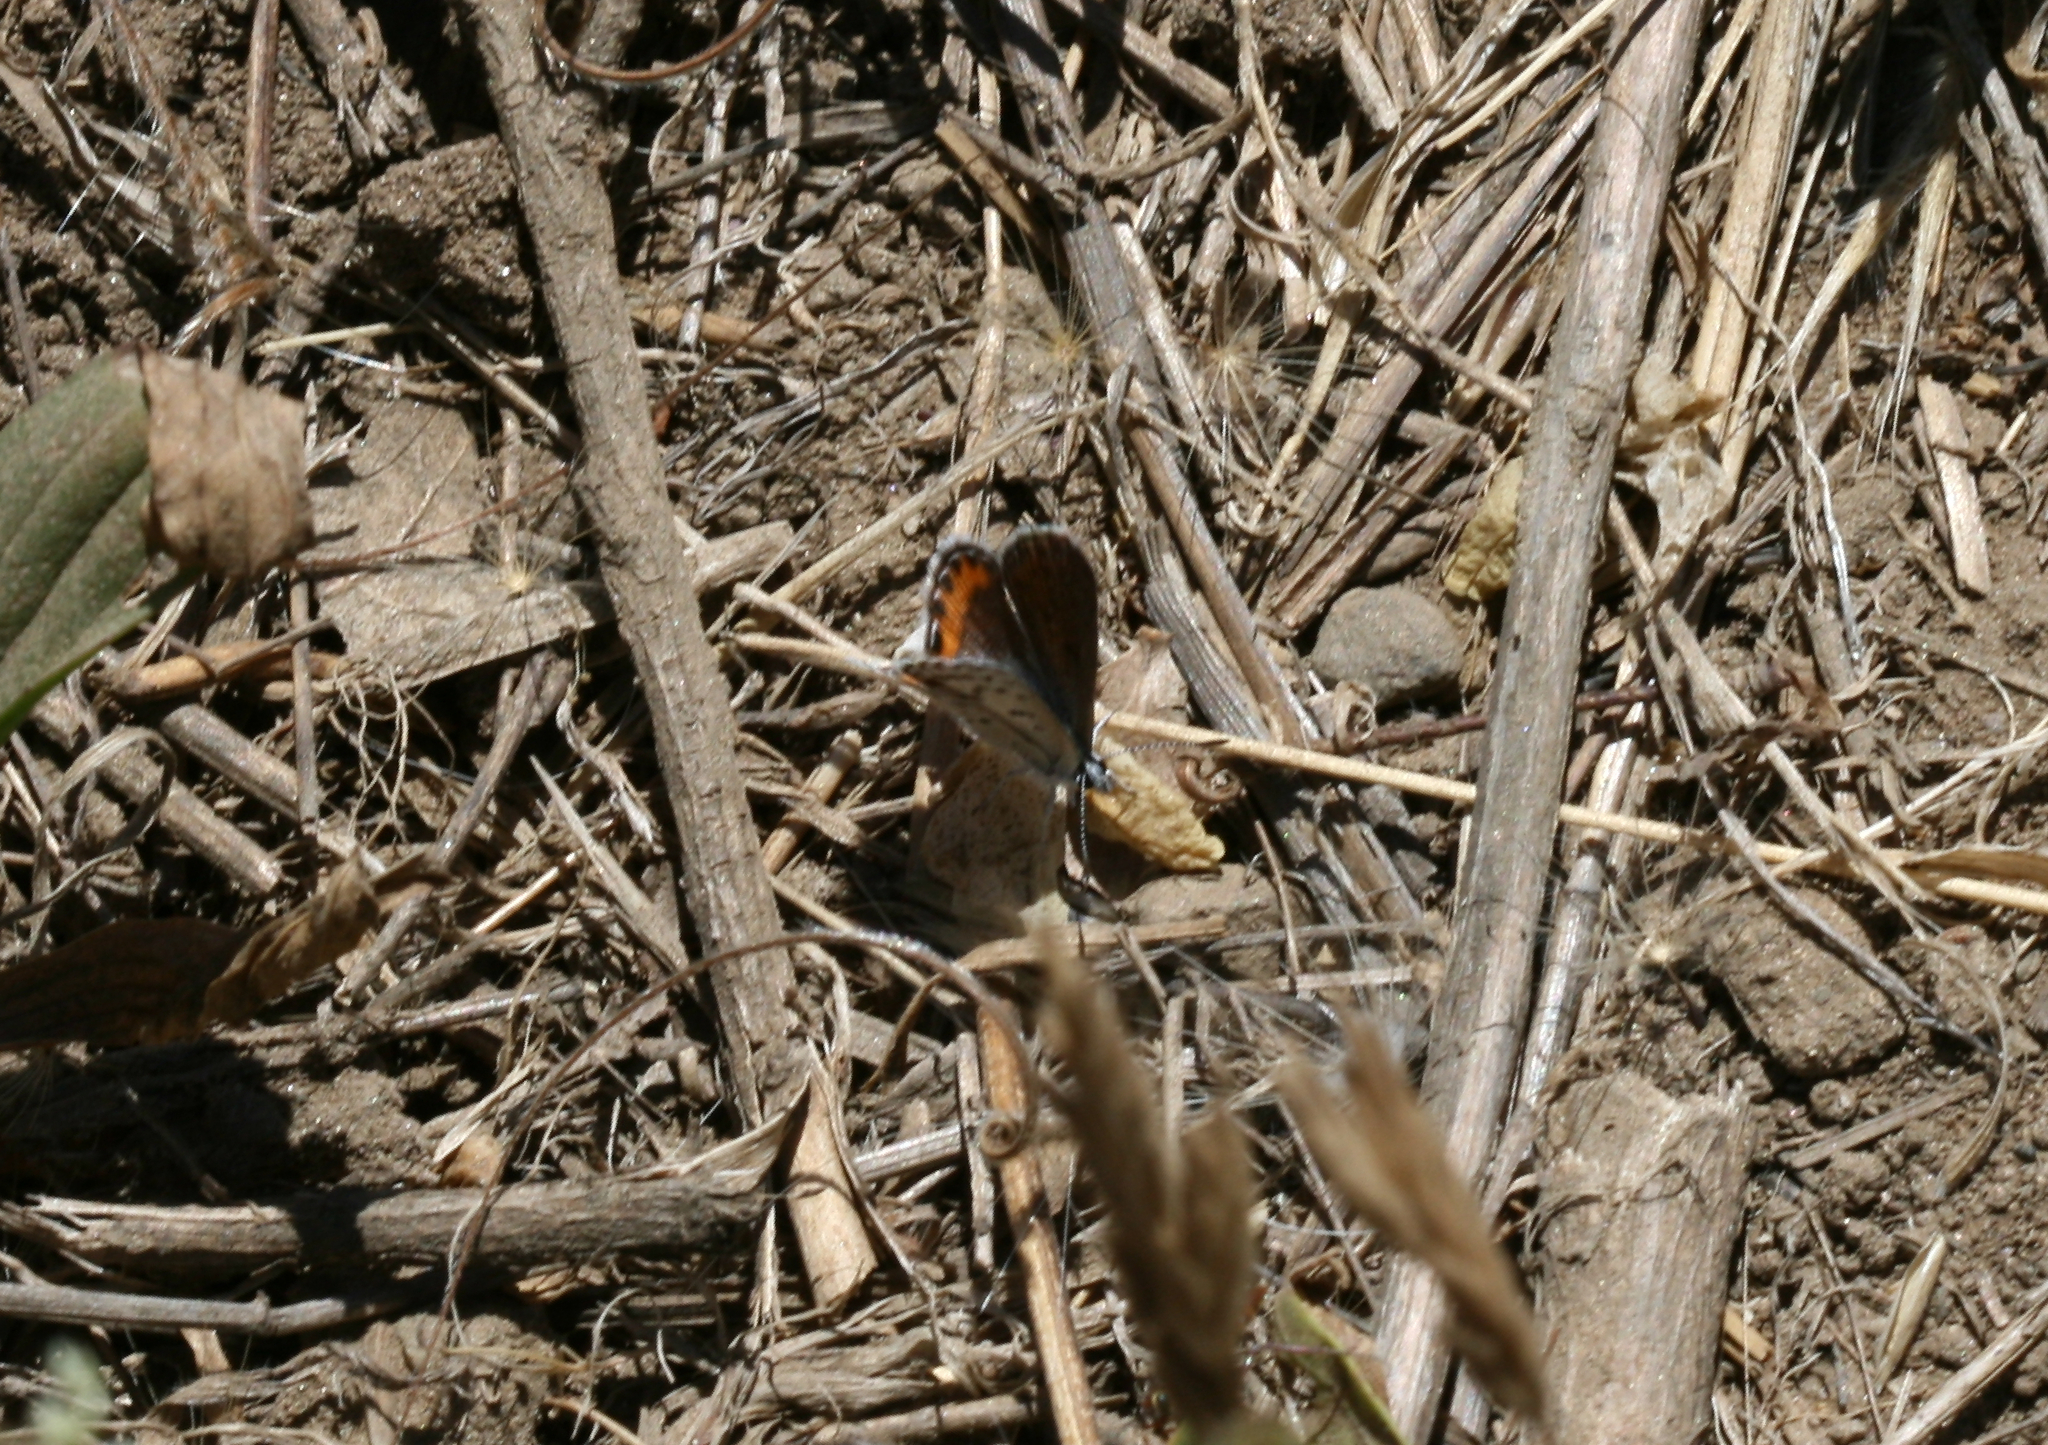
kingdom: Animalia
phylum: Arthropoda
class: Insecta
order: Lepidoptera
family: Lycaenidae
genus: Icaricia
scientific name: Icaricia acmon
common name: Acmon blue
